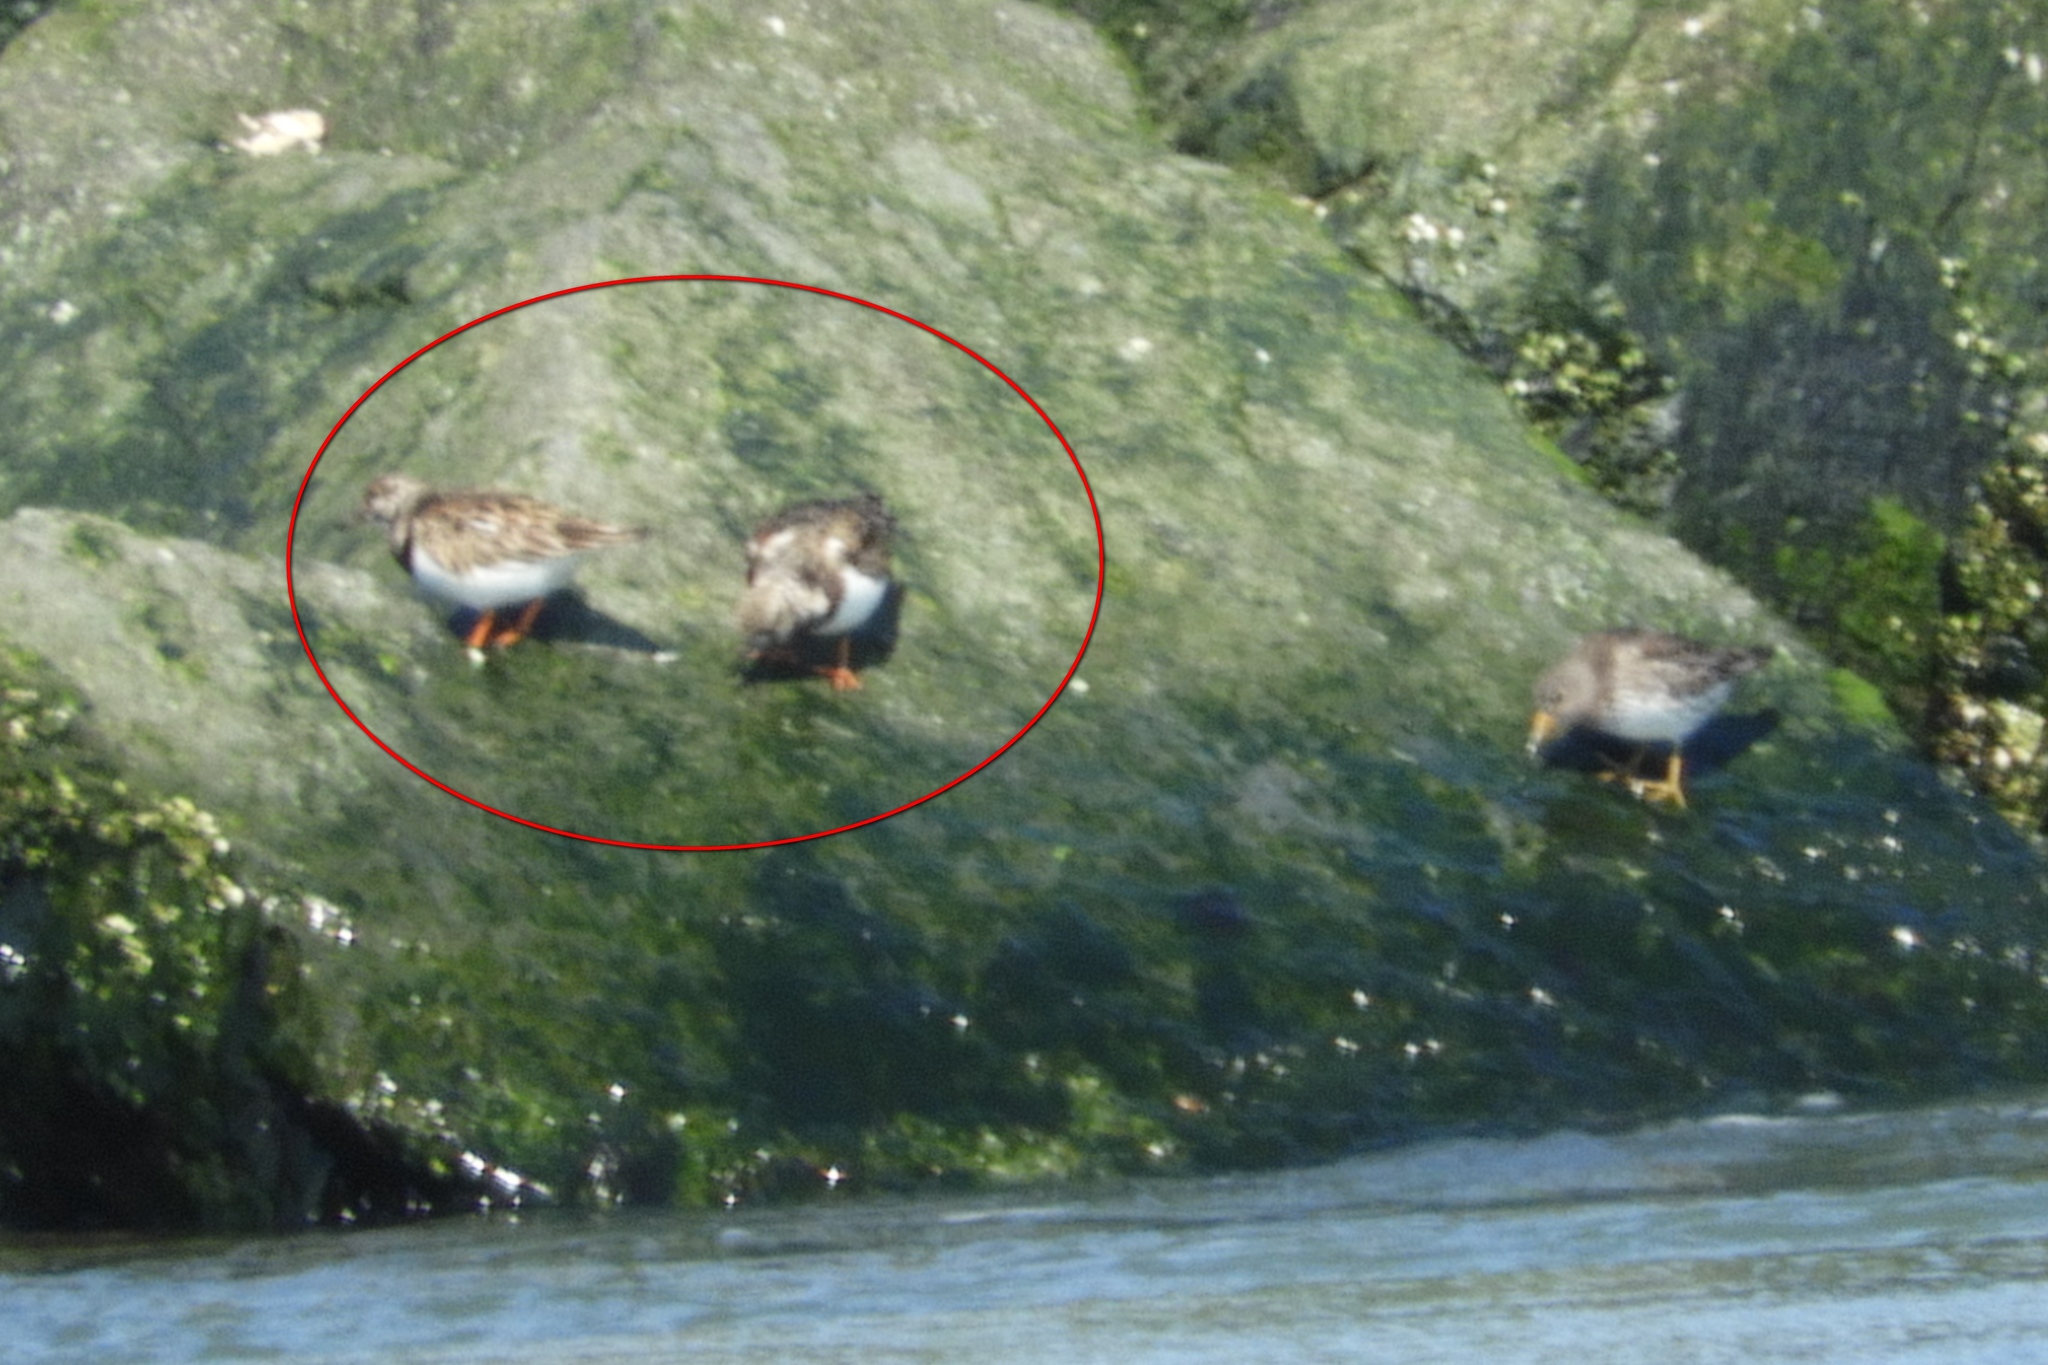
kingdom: Animalia
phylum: Chordata
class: Aves
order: Charadriiformes
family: Scolopacidae
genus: Arenaria
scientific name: Arenaria interpres
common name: Ruddy turnstone
